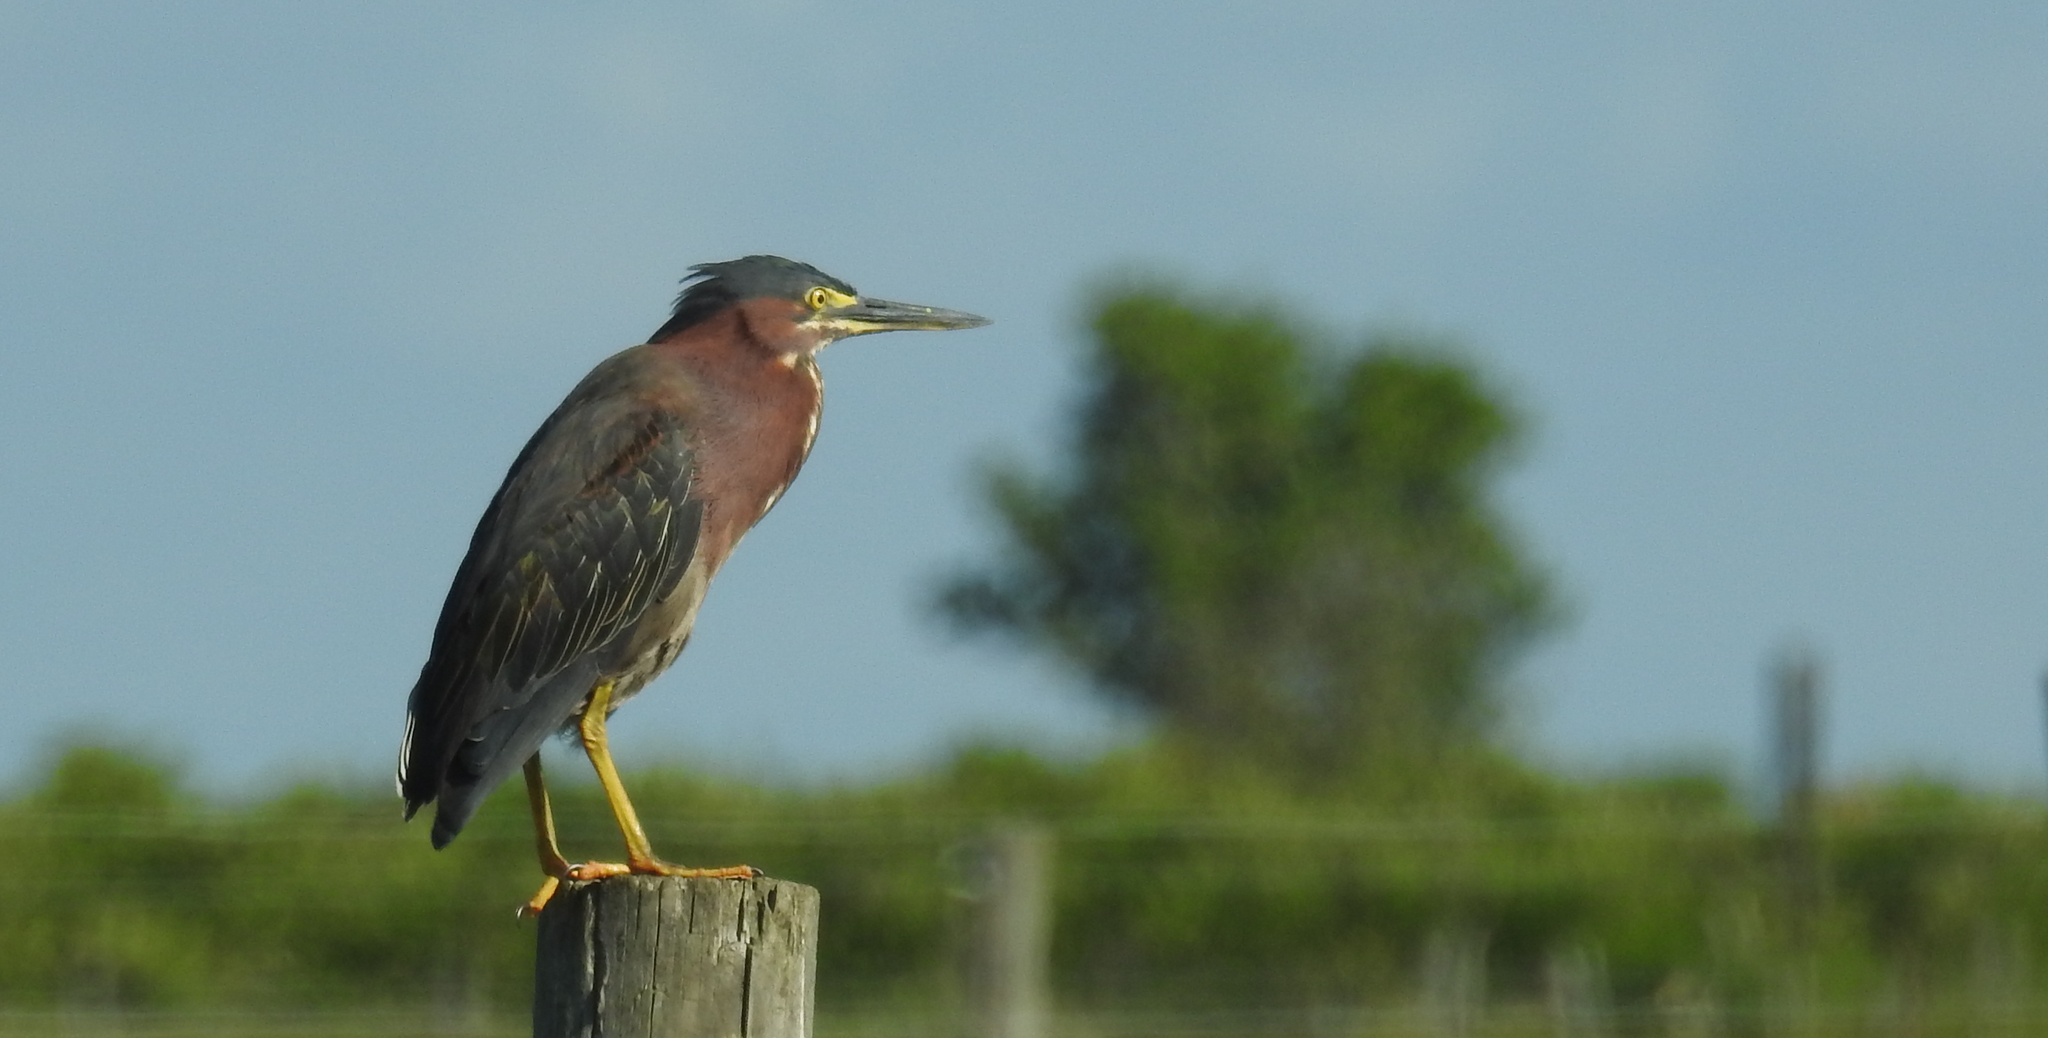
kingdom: Animalia
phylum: Chordata
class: Aves
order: Pelecaniformes
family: Ardeidae
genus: Butorides
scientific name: Butorides virescens
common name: Green heron
